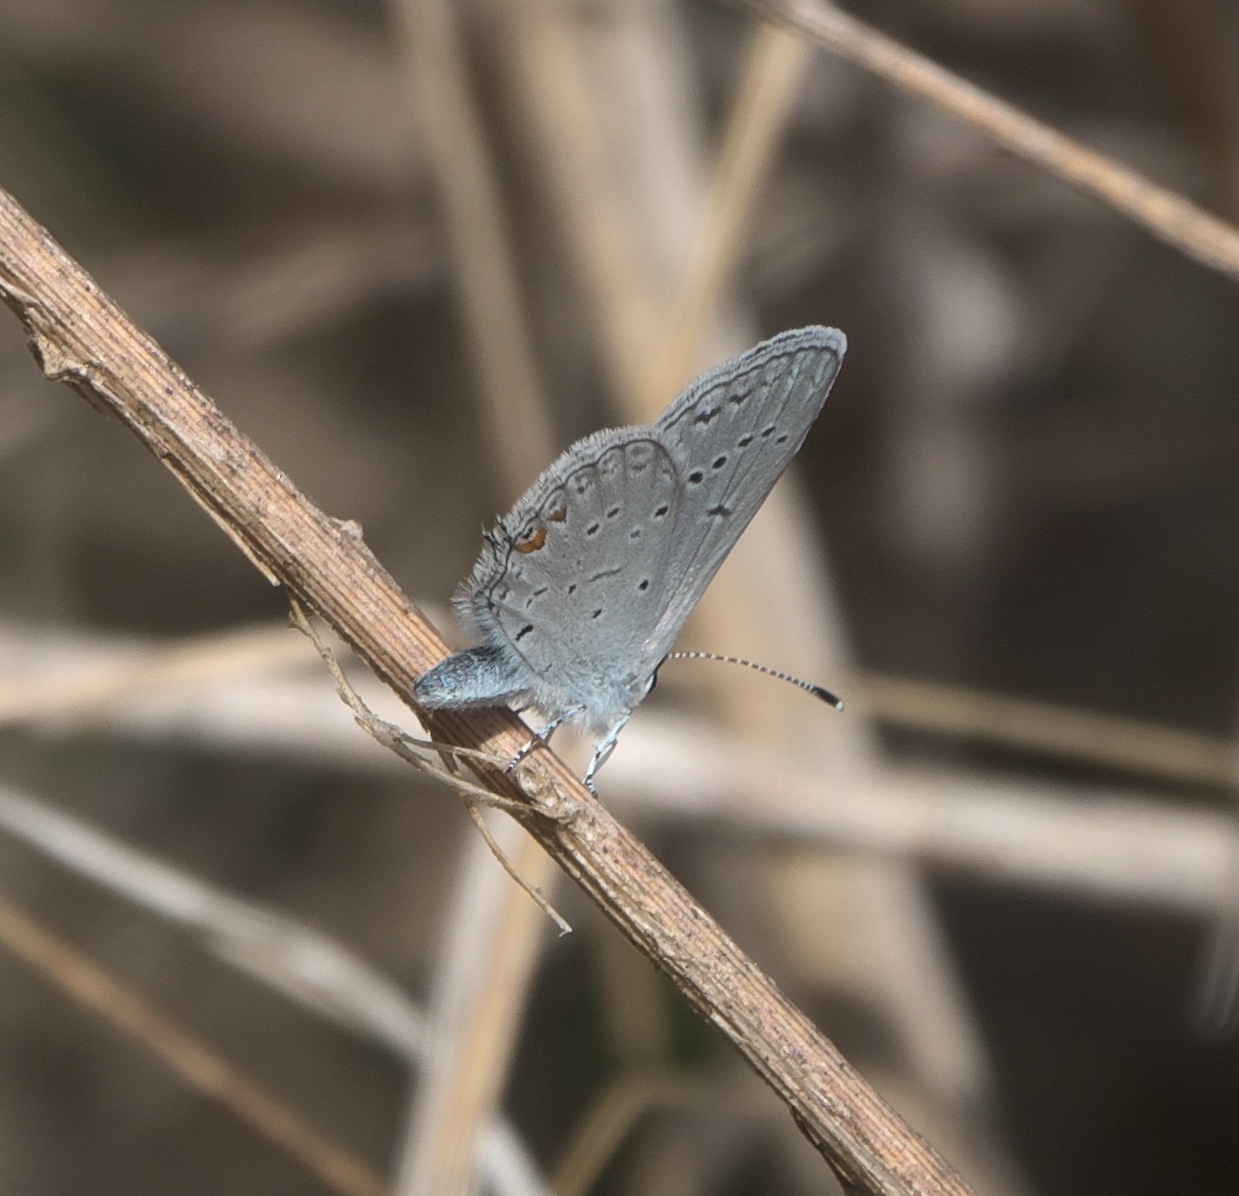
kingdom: Animalia
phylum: Arthropoda
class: Insecta
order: Lepidoptera
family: Lycaenidae
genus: Elkalyce
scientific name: Elkalyce comyntas
